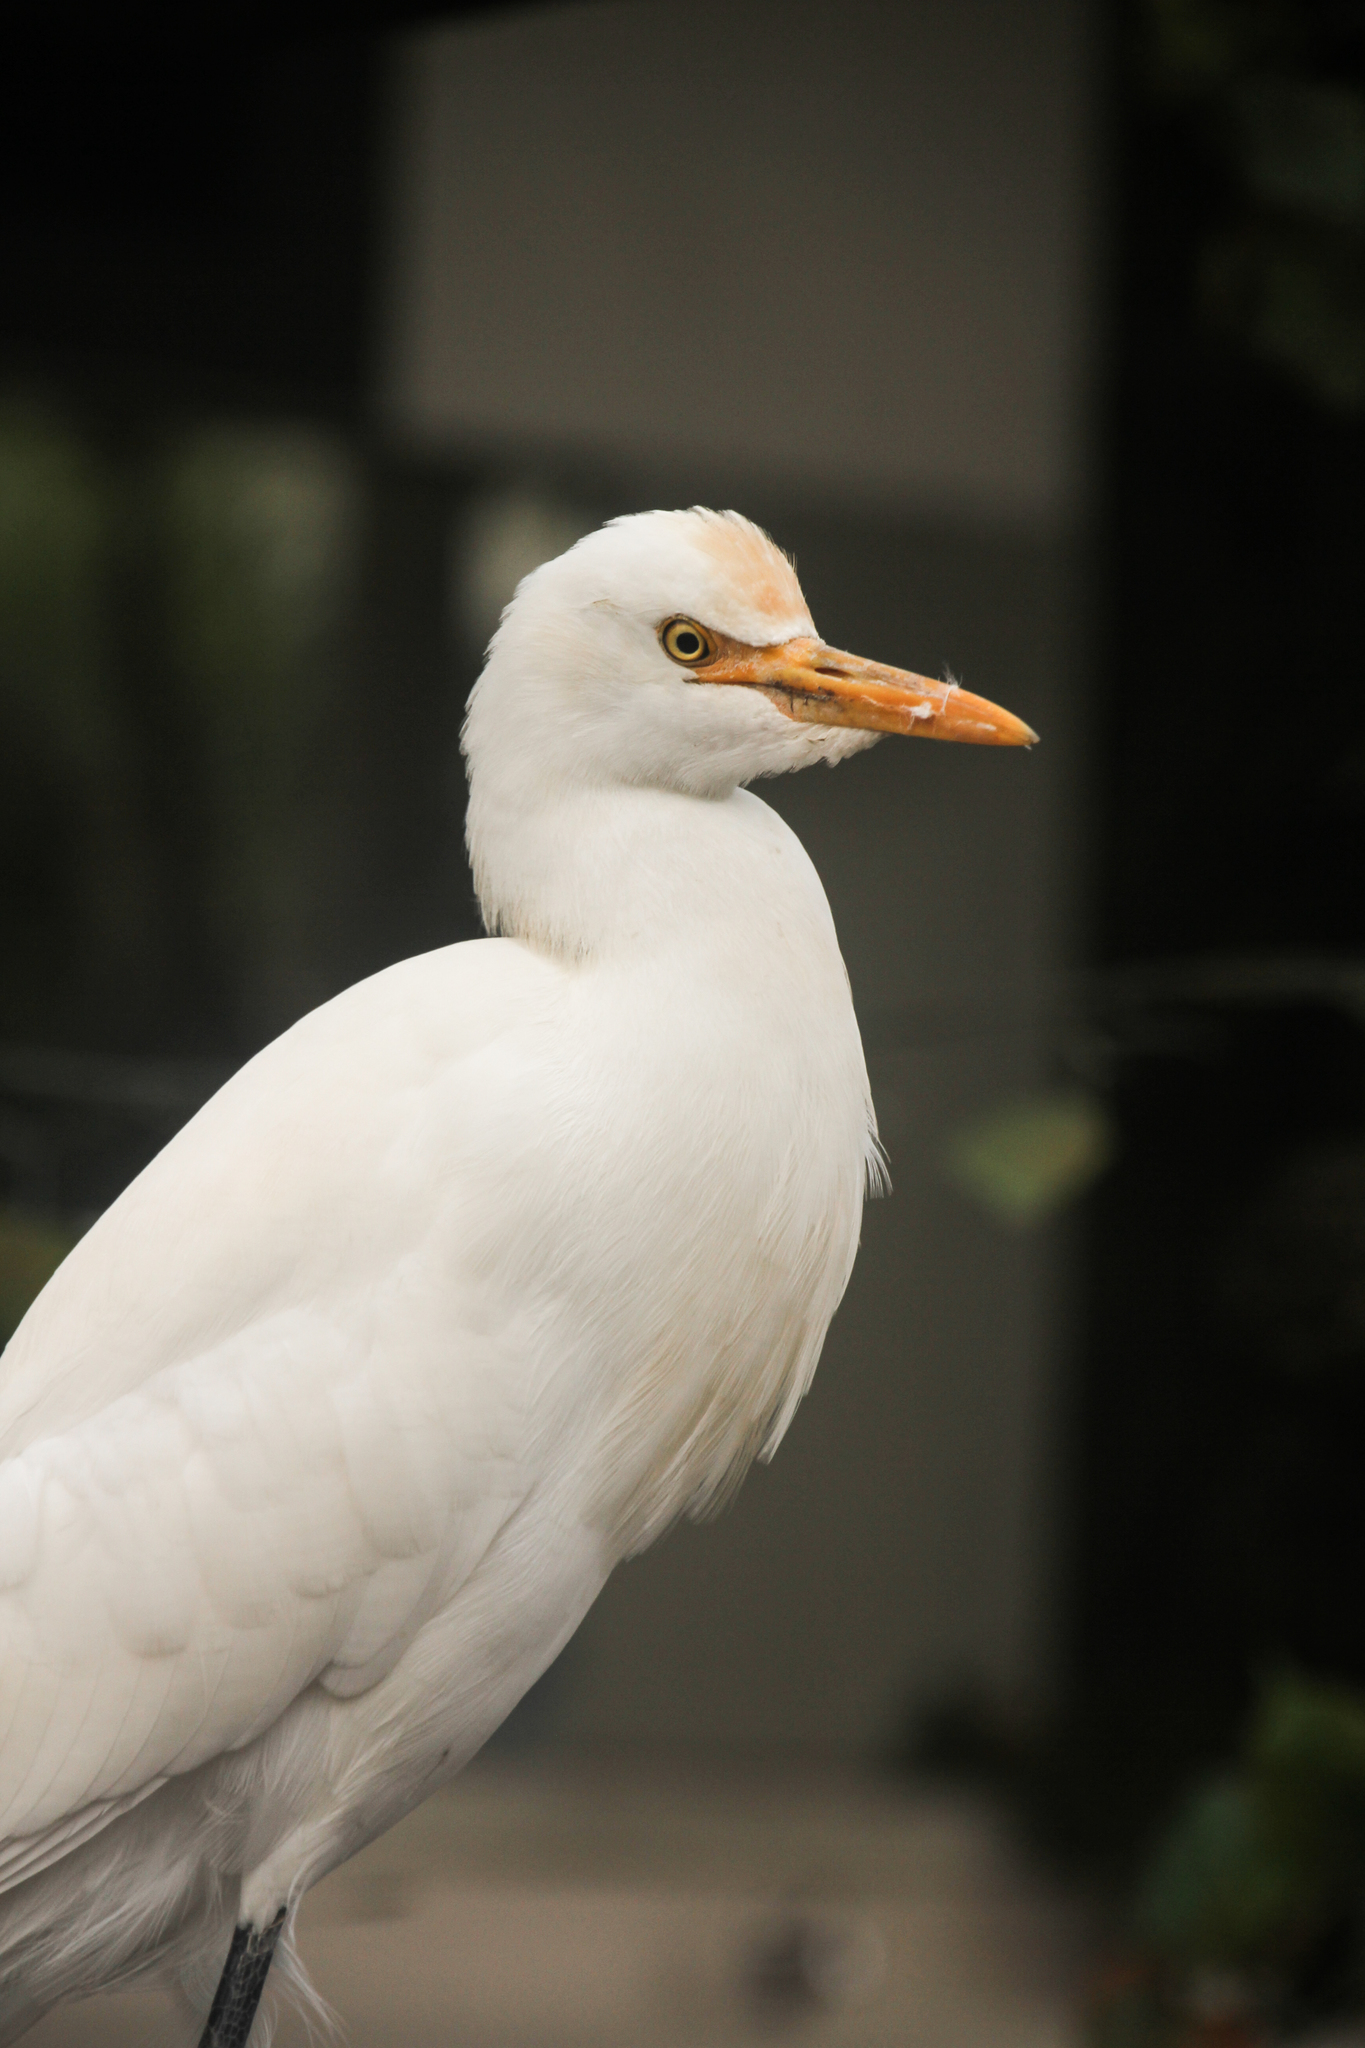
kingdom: Animalia
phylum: Chordata
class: Aves
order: Pelecaniformes
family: Ardeidae
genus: Bubulcus
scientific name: Bubulcus coromandus
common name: Eastern cattle egret
